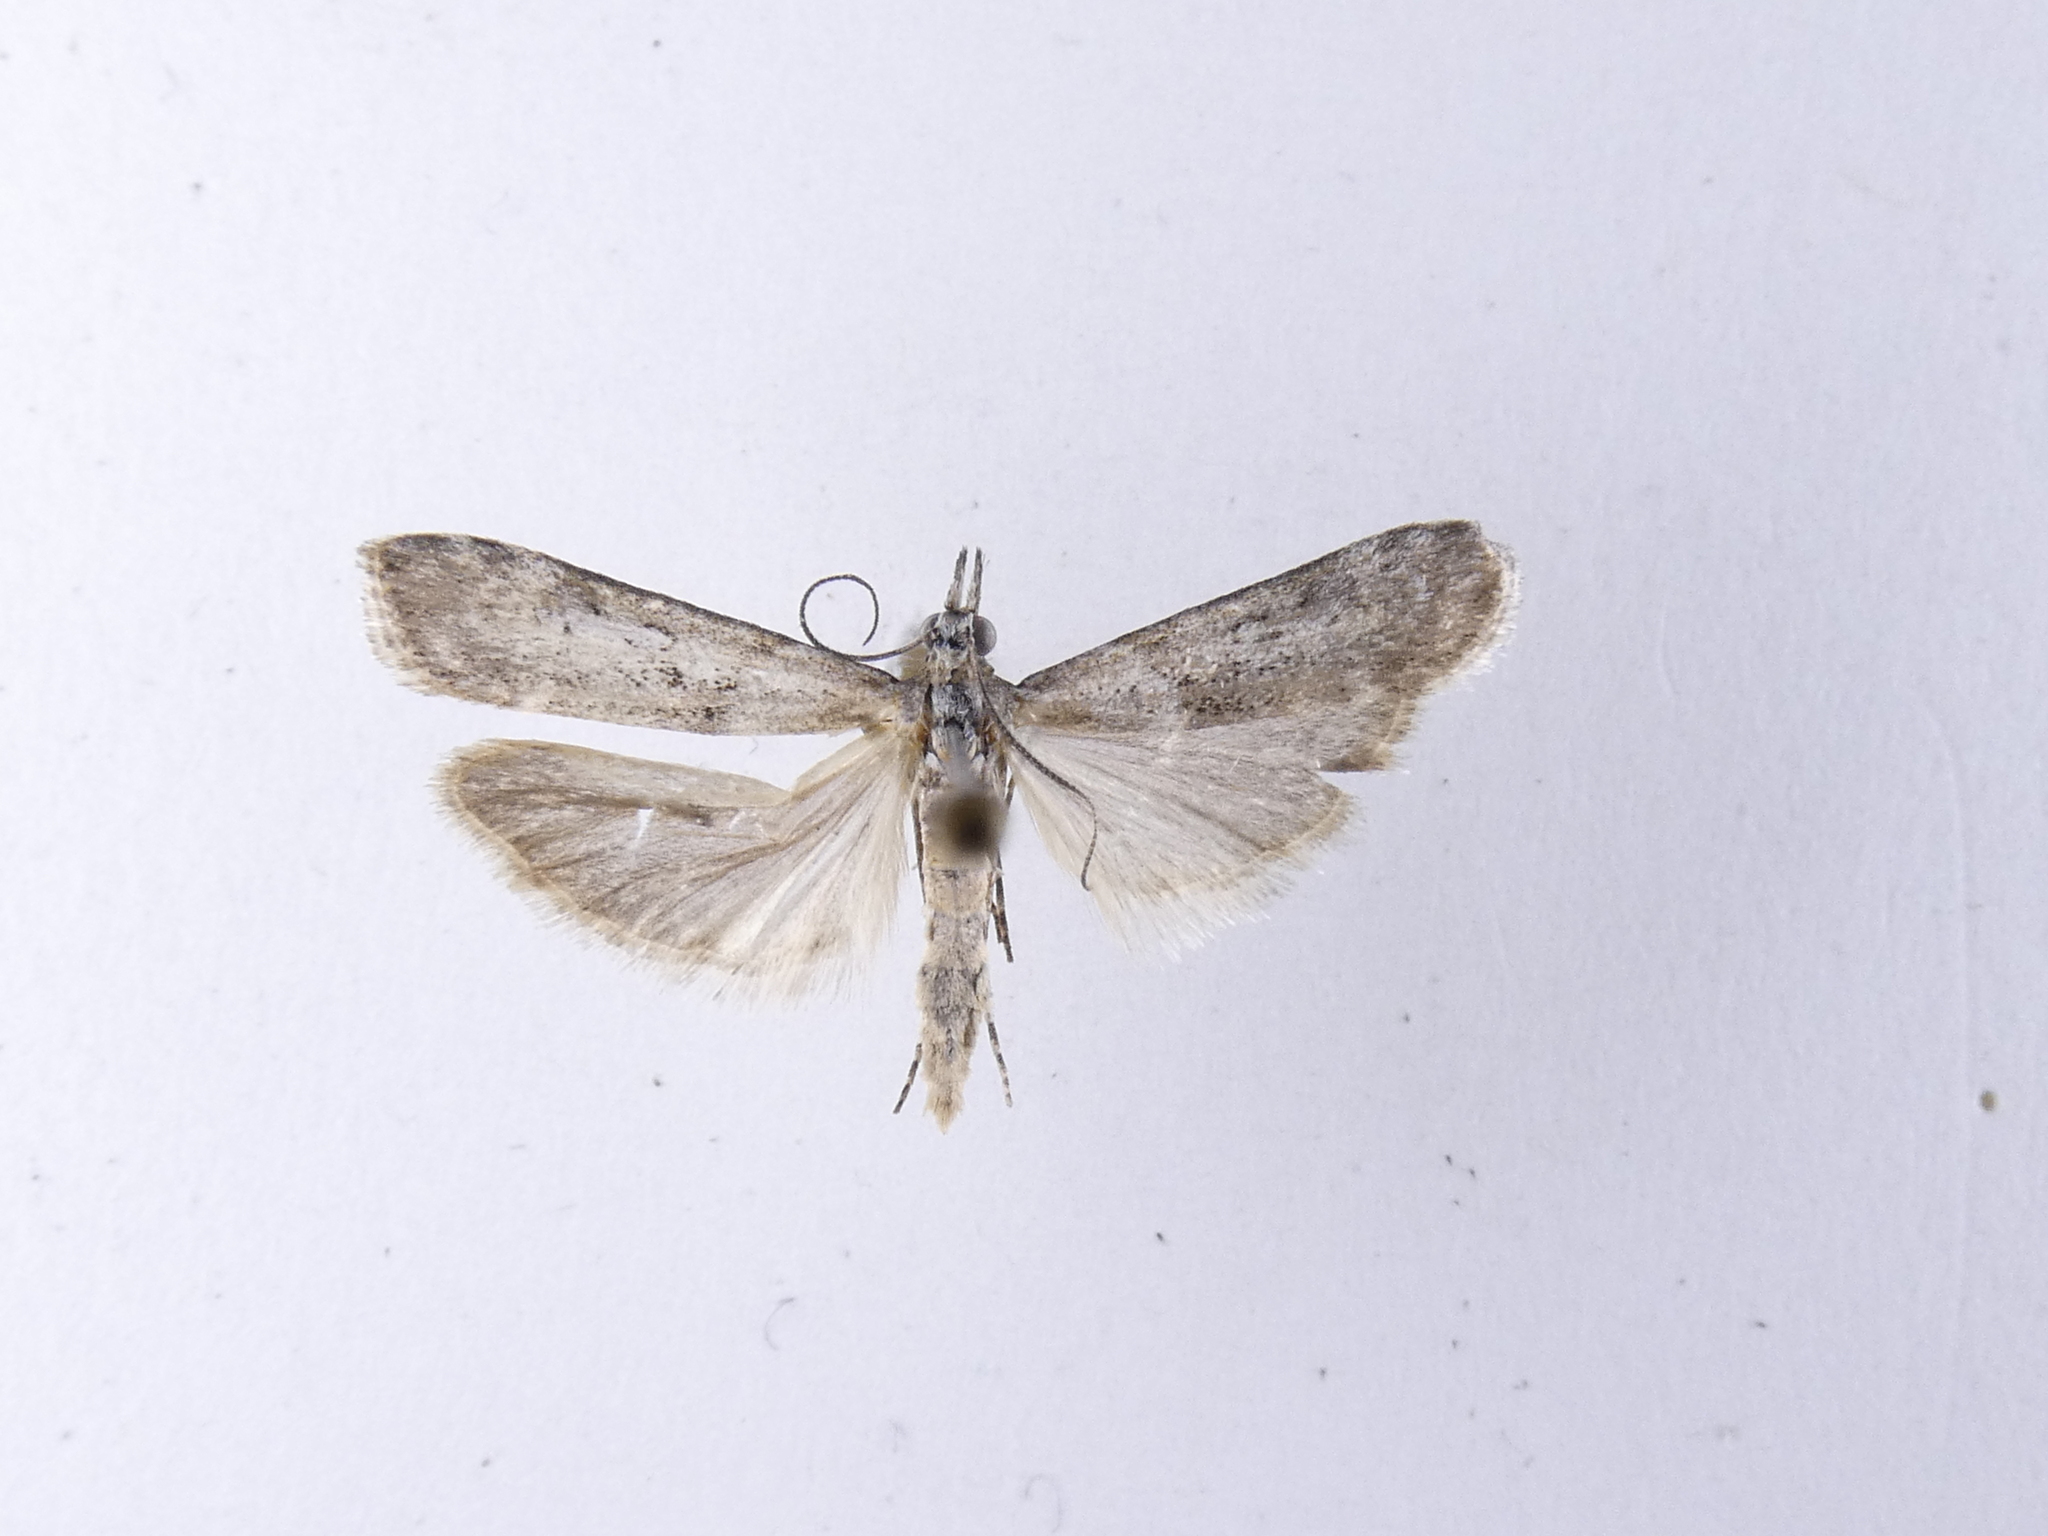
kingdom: Animalia
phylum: Arthropoda
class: Insecta
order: Lepidoptera
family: Crambidae
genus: Eudonia
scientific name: Eudonia leptalea
